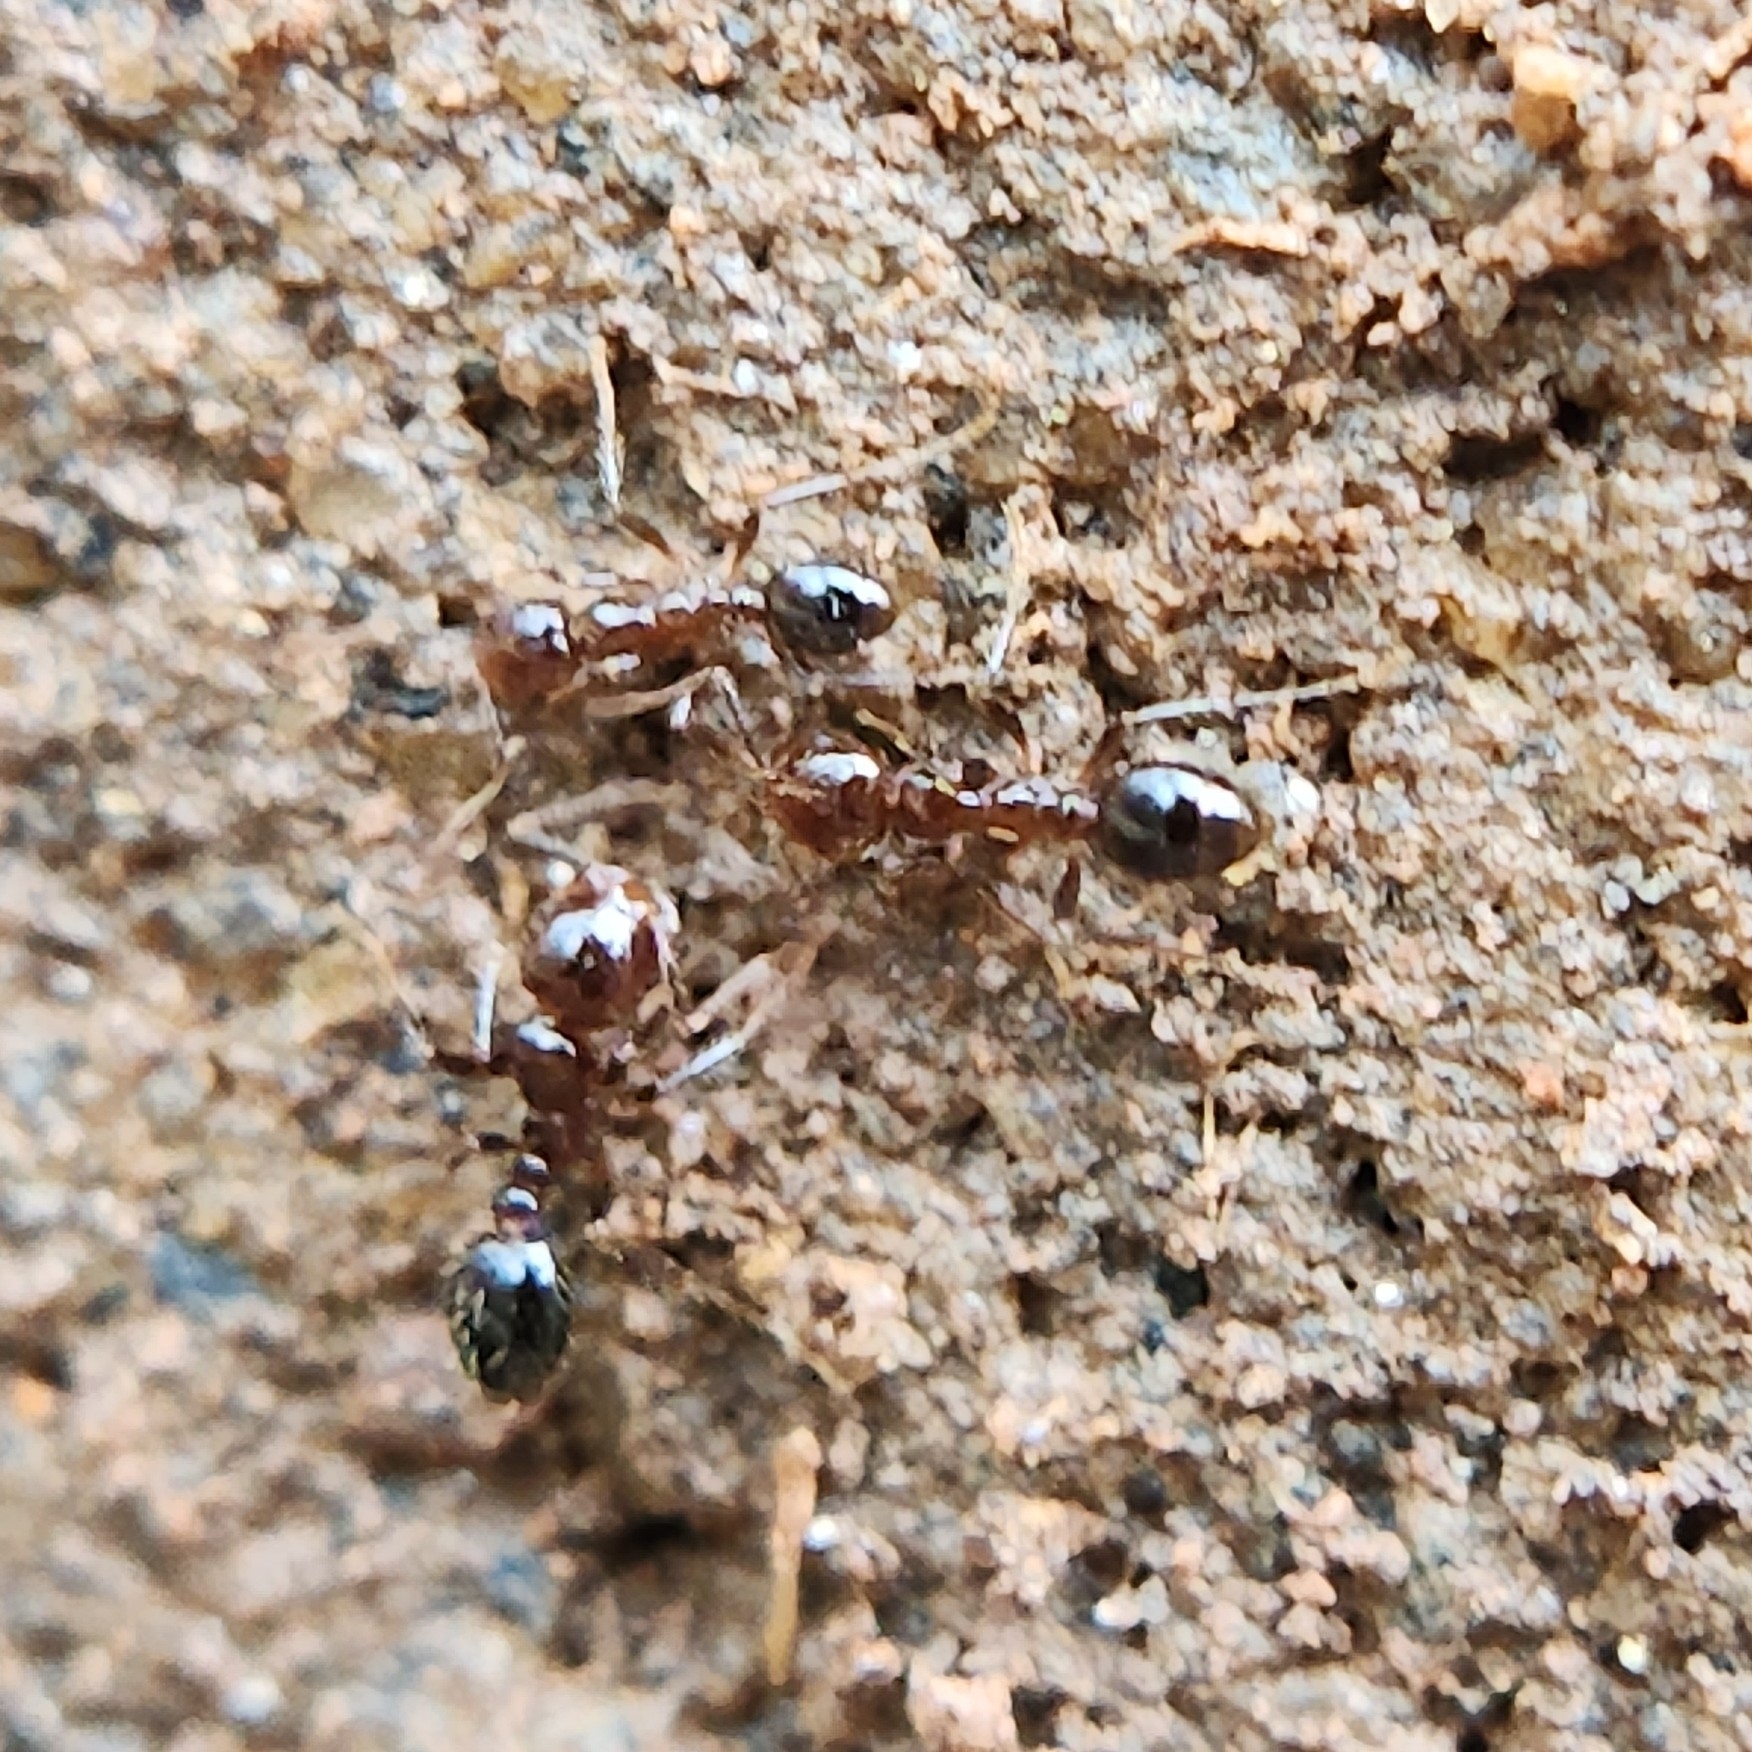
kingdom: Animalia
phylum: Arthropoda
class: Insecta
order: Hymenoptera
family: Formicidae
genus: Solenopsis
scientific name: Solenopsis invicta
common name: Red imported fire ant
